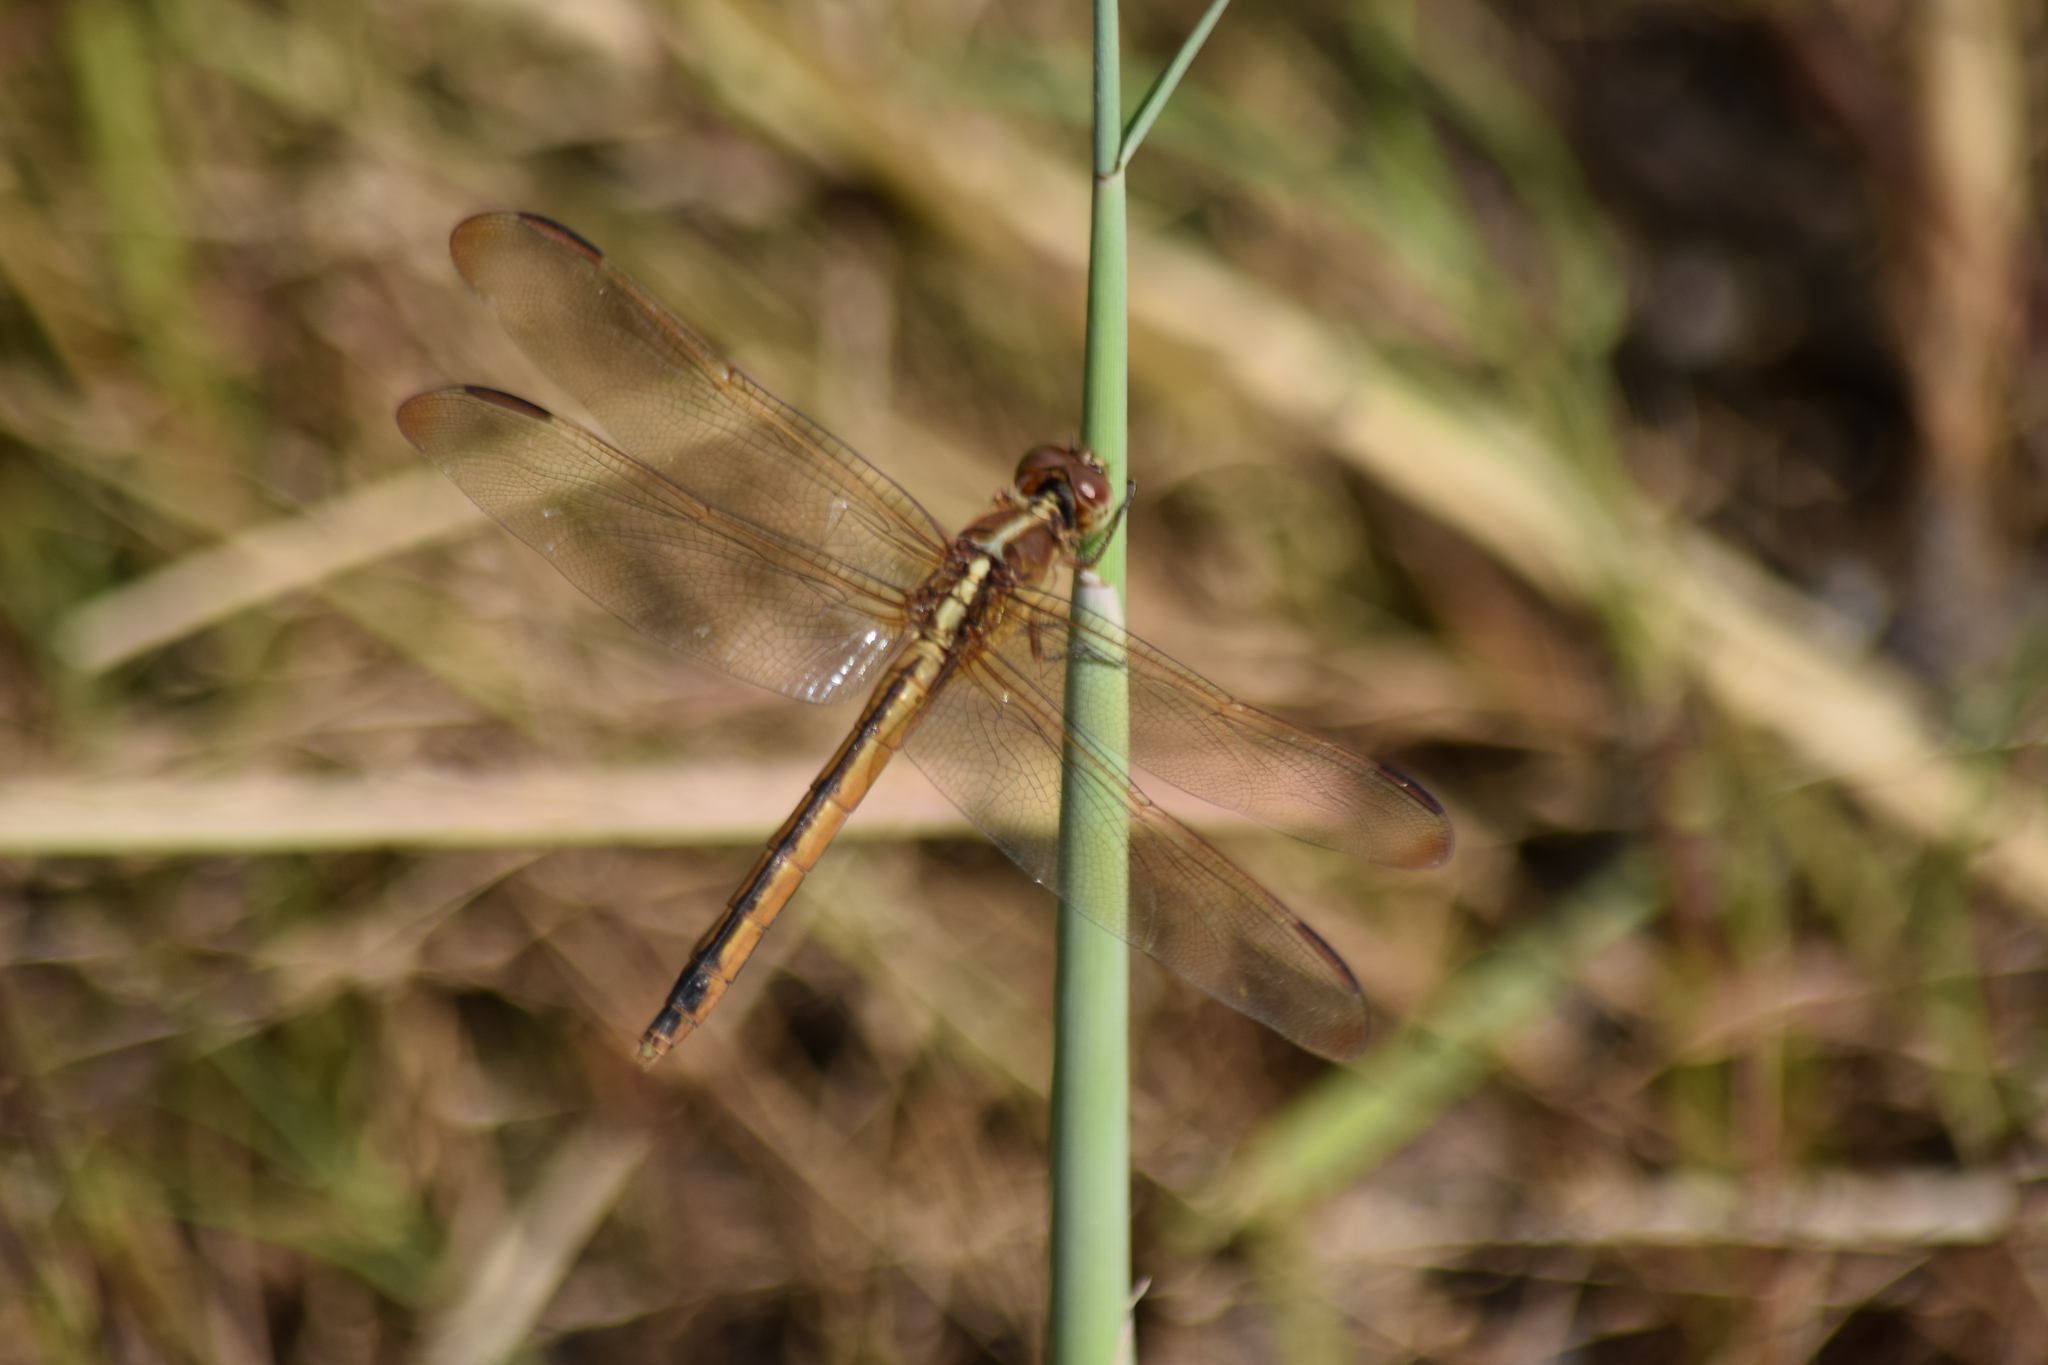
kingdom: Animalia
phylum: Arthropoda
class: Insecta
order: Odonata
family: Libellulidae
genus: Libellula
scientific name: Libellula needhami
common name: Needham's skimmer
